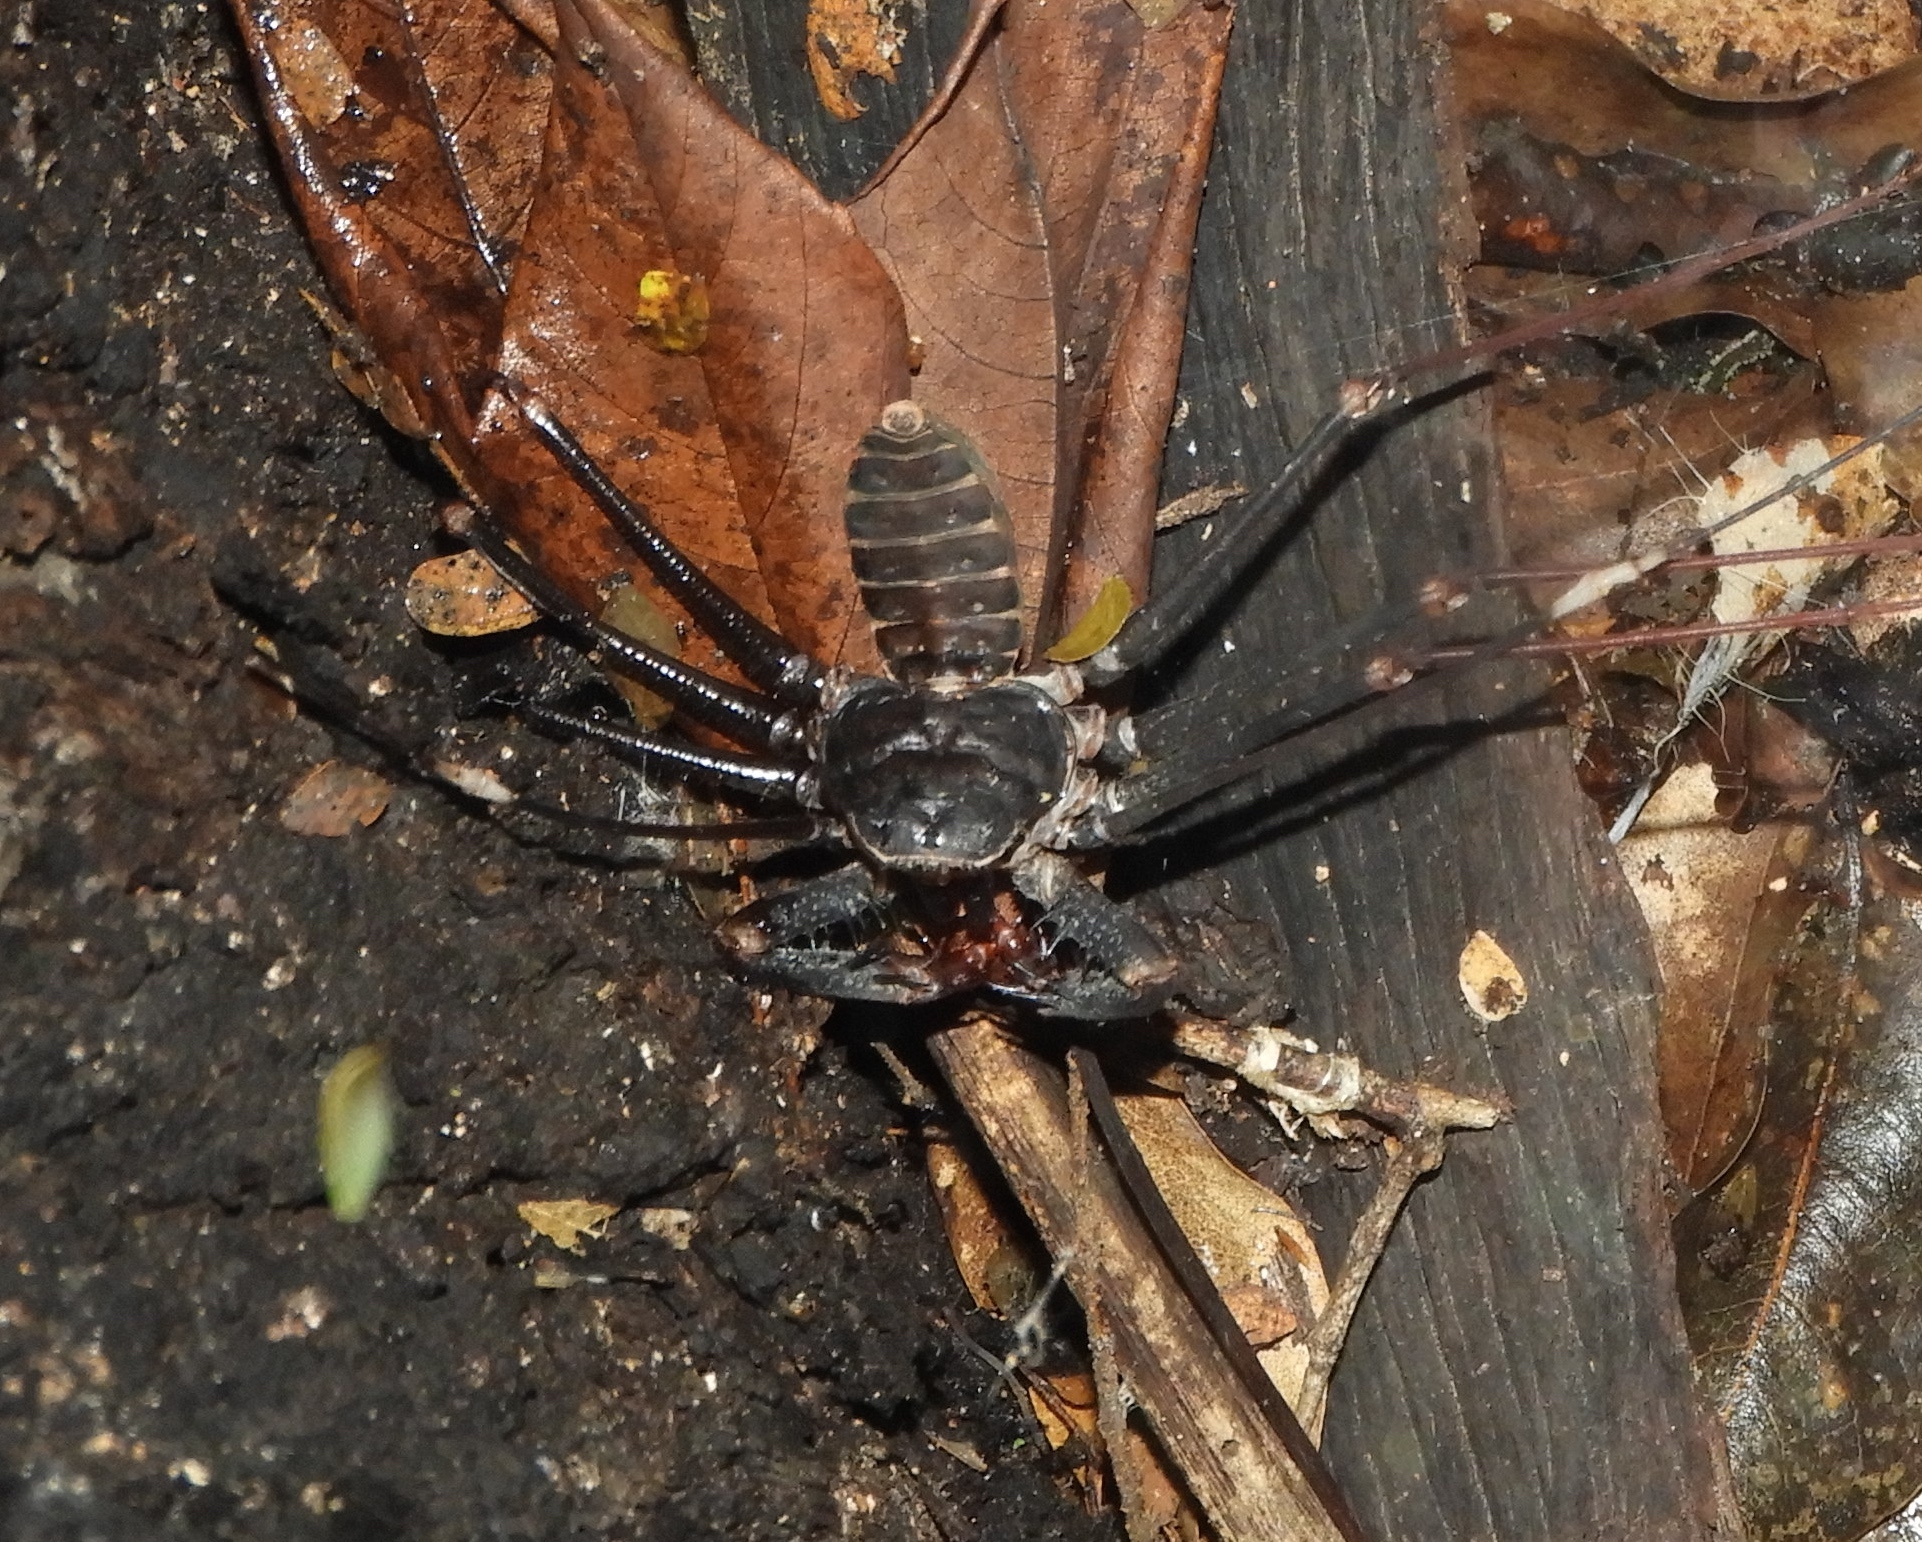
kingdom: Animalia
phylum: Arthropoda
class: Arachnida
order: Amblypygi
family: Phrynidae
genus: Acanthophrynus
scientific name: Acanthophrynus coronatus
